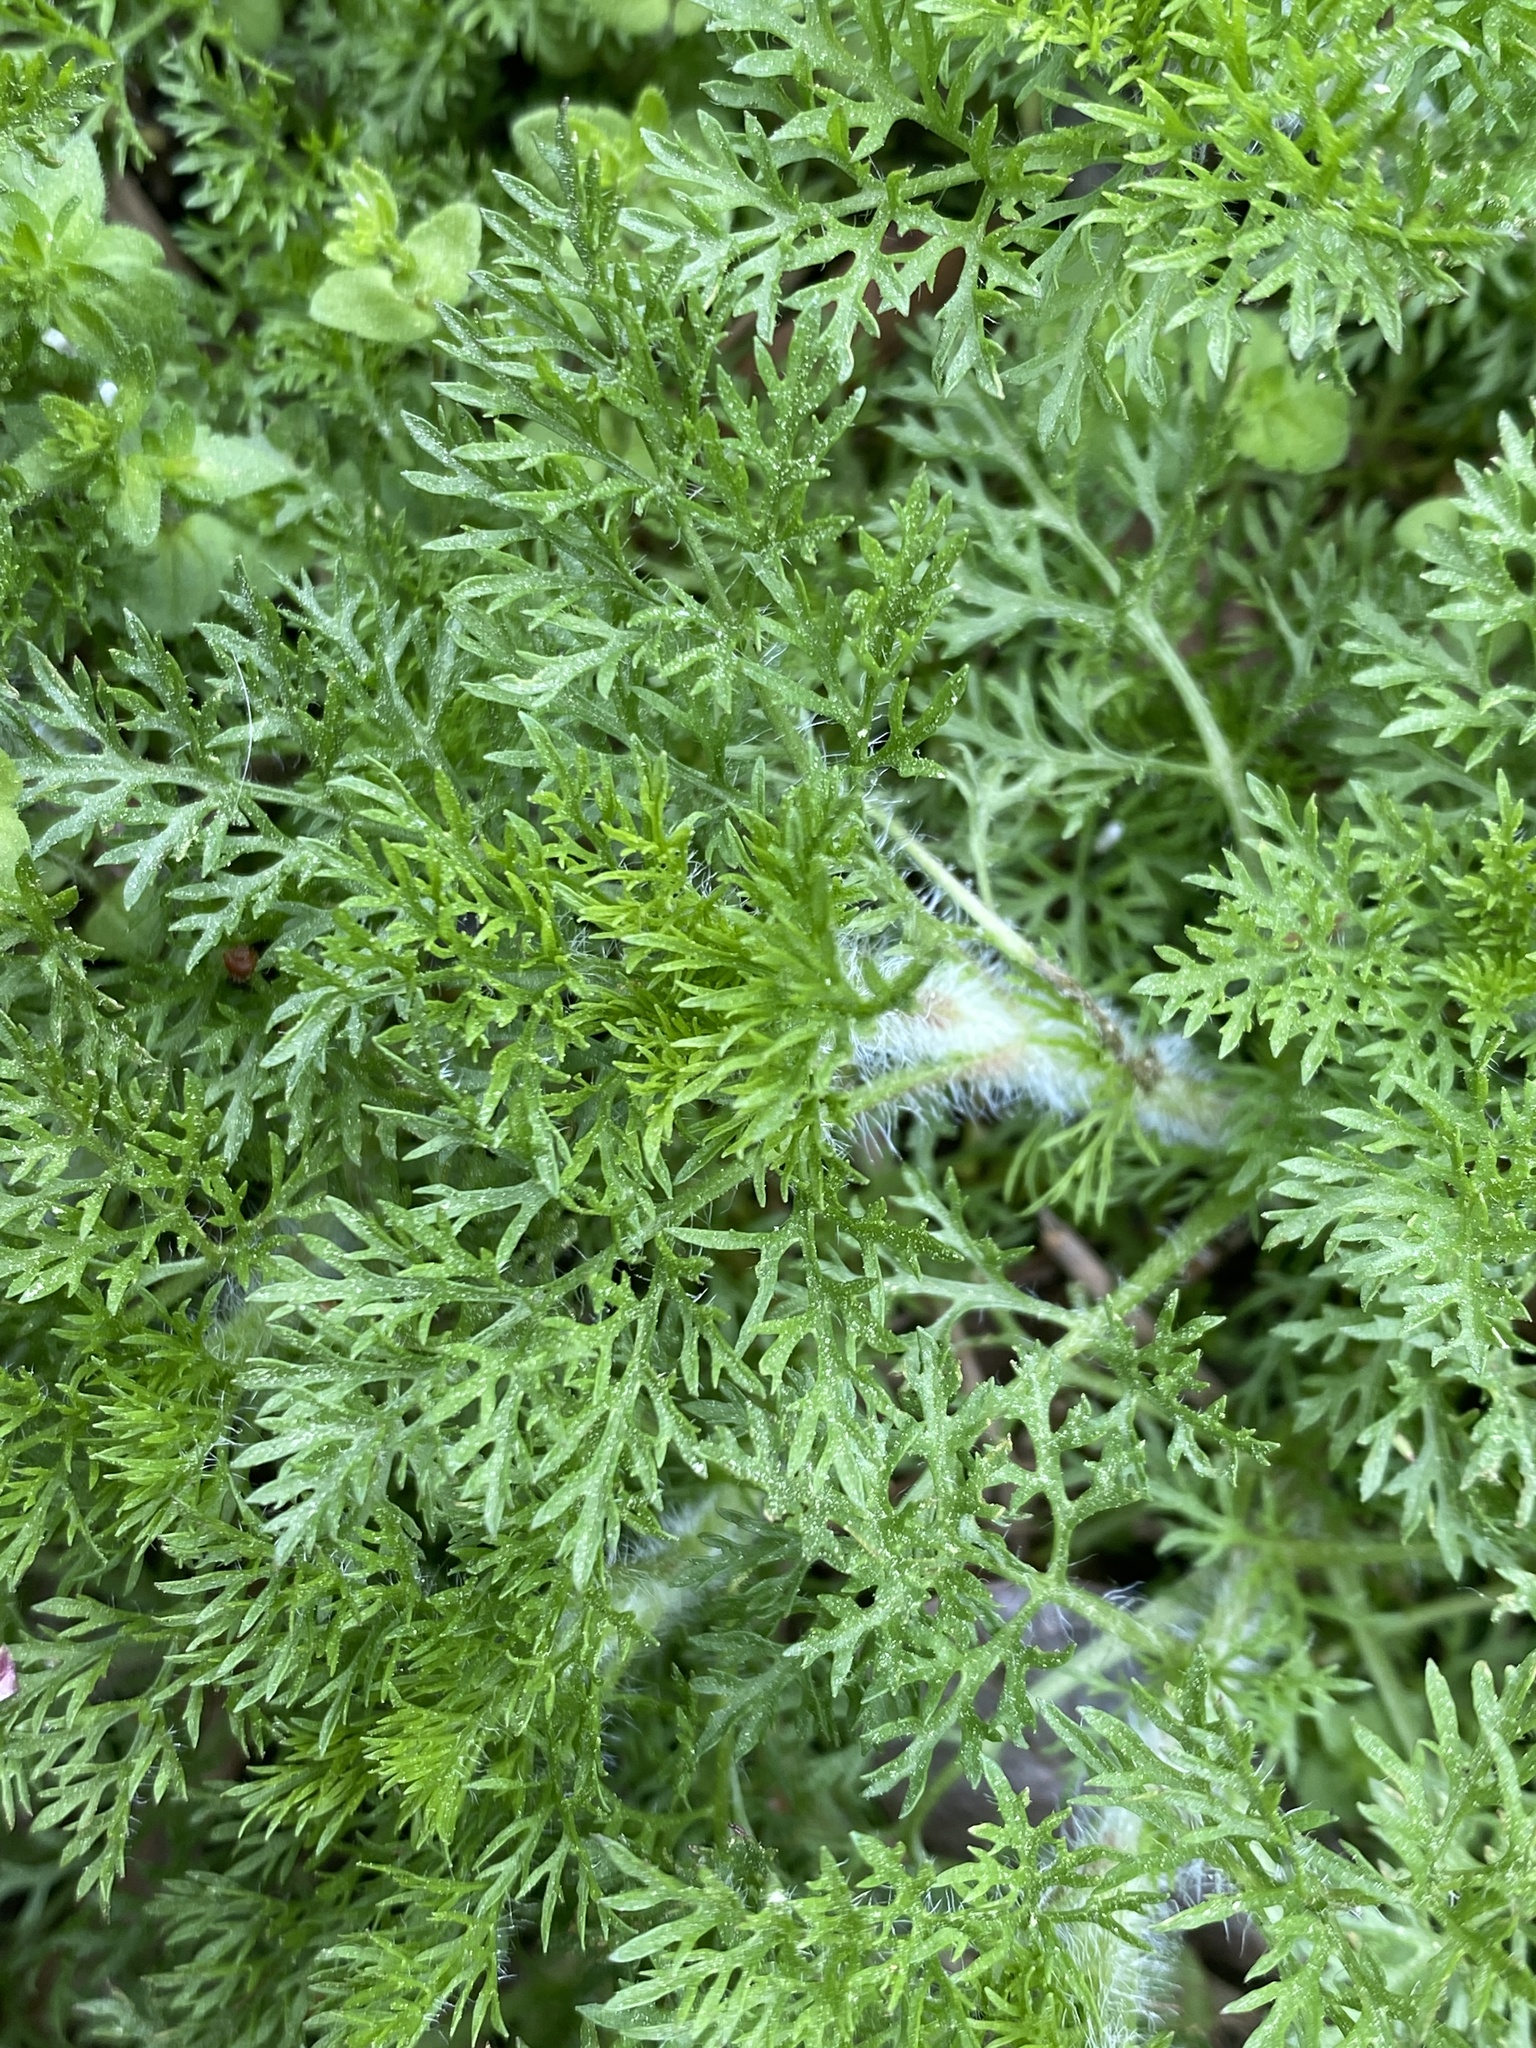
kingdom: Plantae
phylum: Tracheophyta
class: Magnoliopsida
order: Asterales
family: Asteraceae
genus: Eupatorium
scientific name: Eupatorium capillifolium
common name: Dog-fennel
